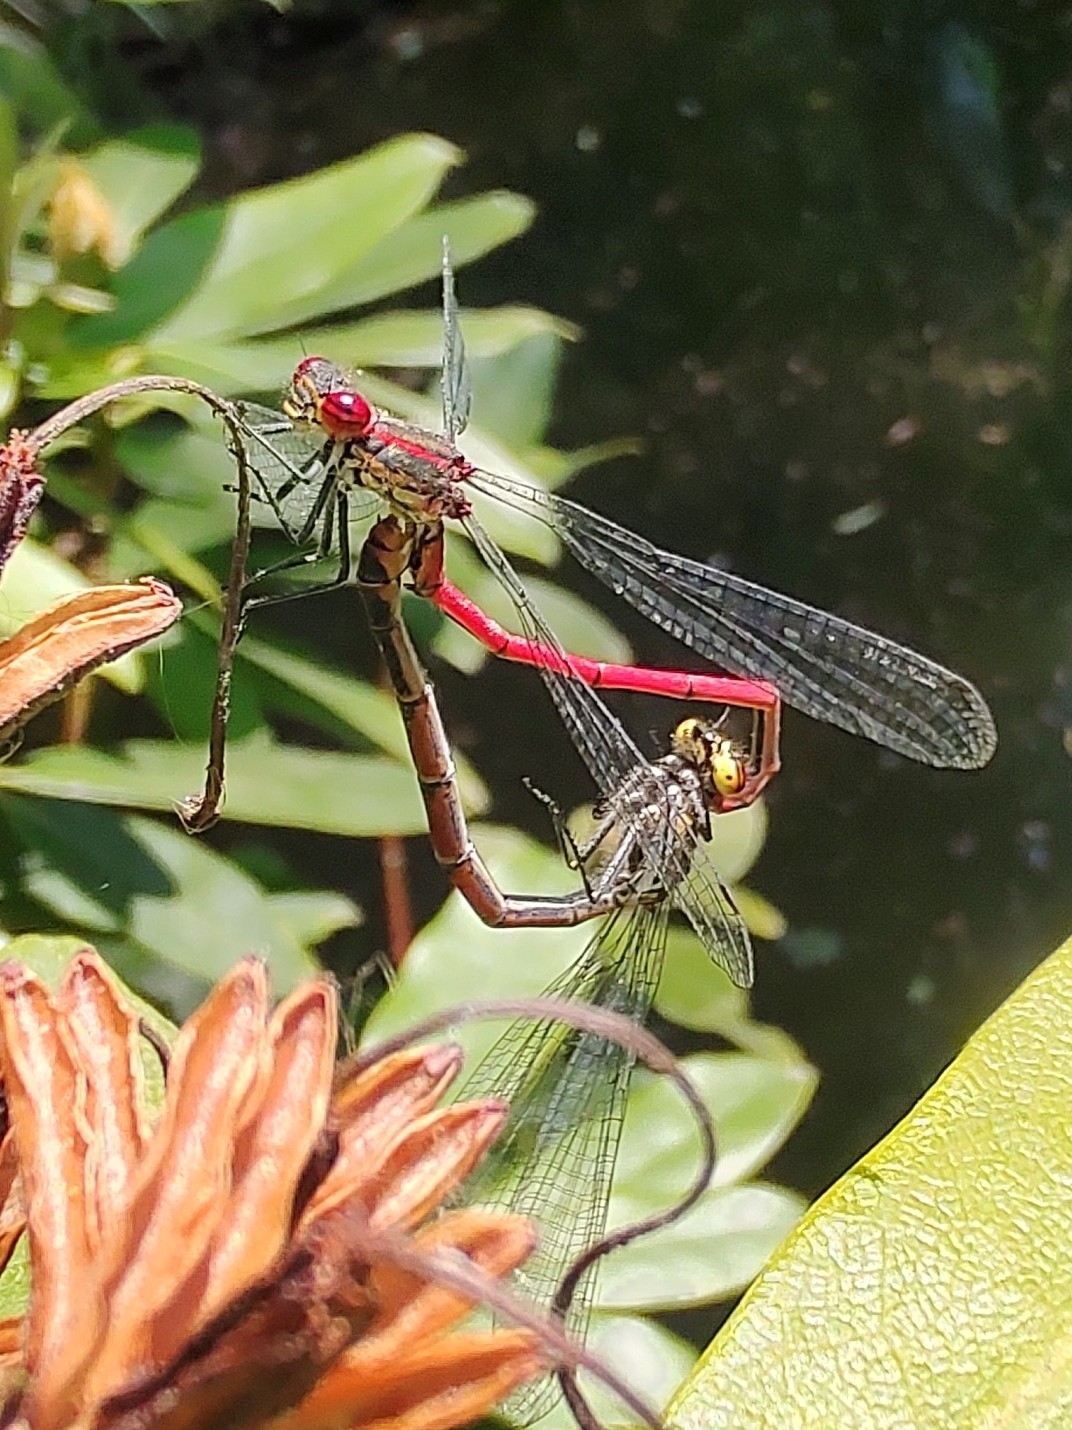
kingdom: Animalia
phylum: Arthropoda
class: Insecta
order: Odonata
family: Coenagrionidae
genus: Pyrrhosoma
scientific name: Pyrrhosoma nymphula
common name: Large red damsel
